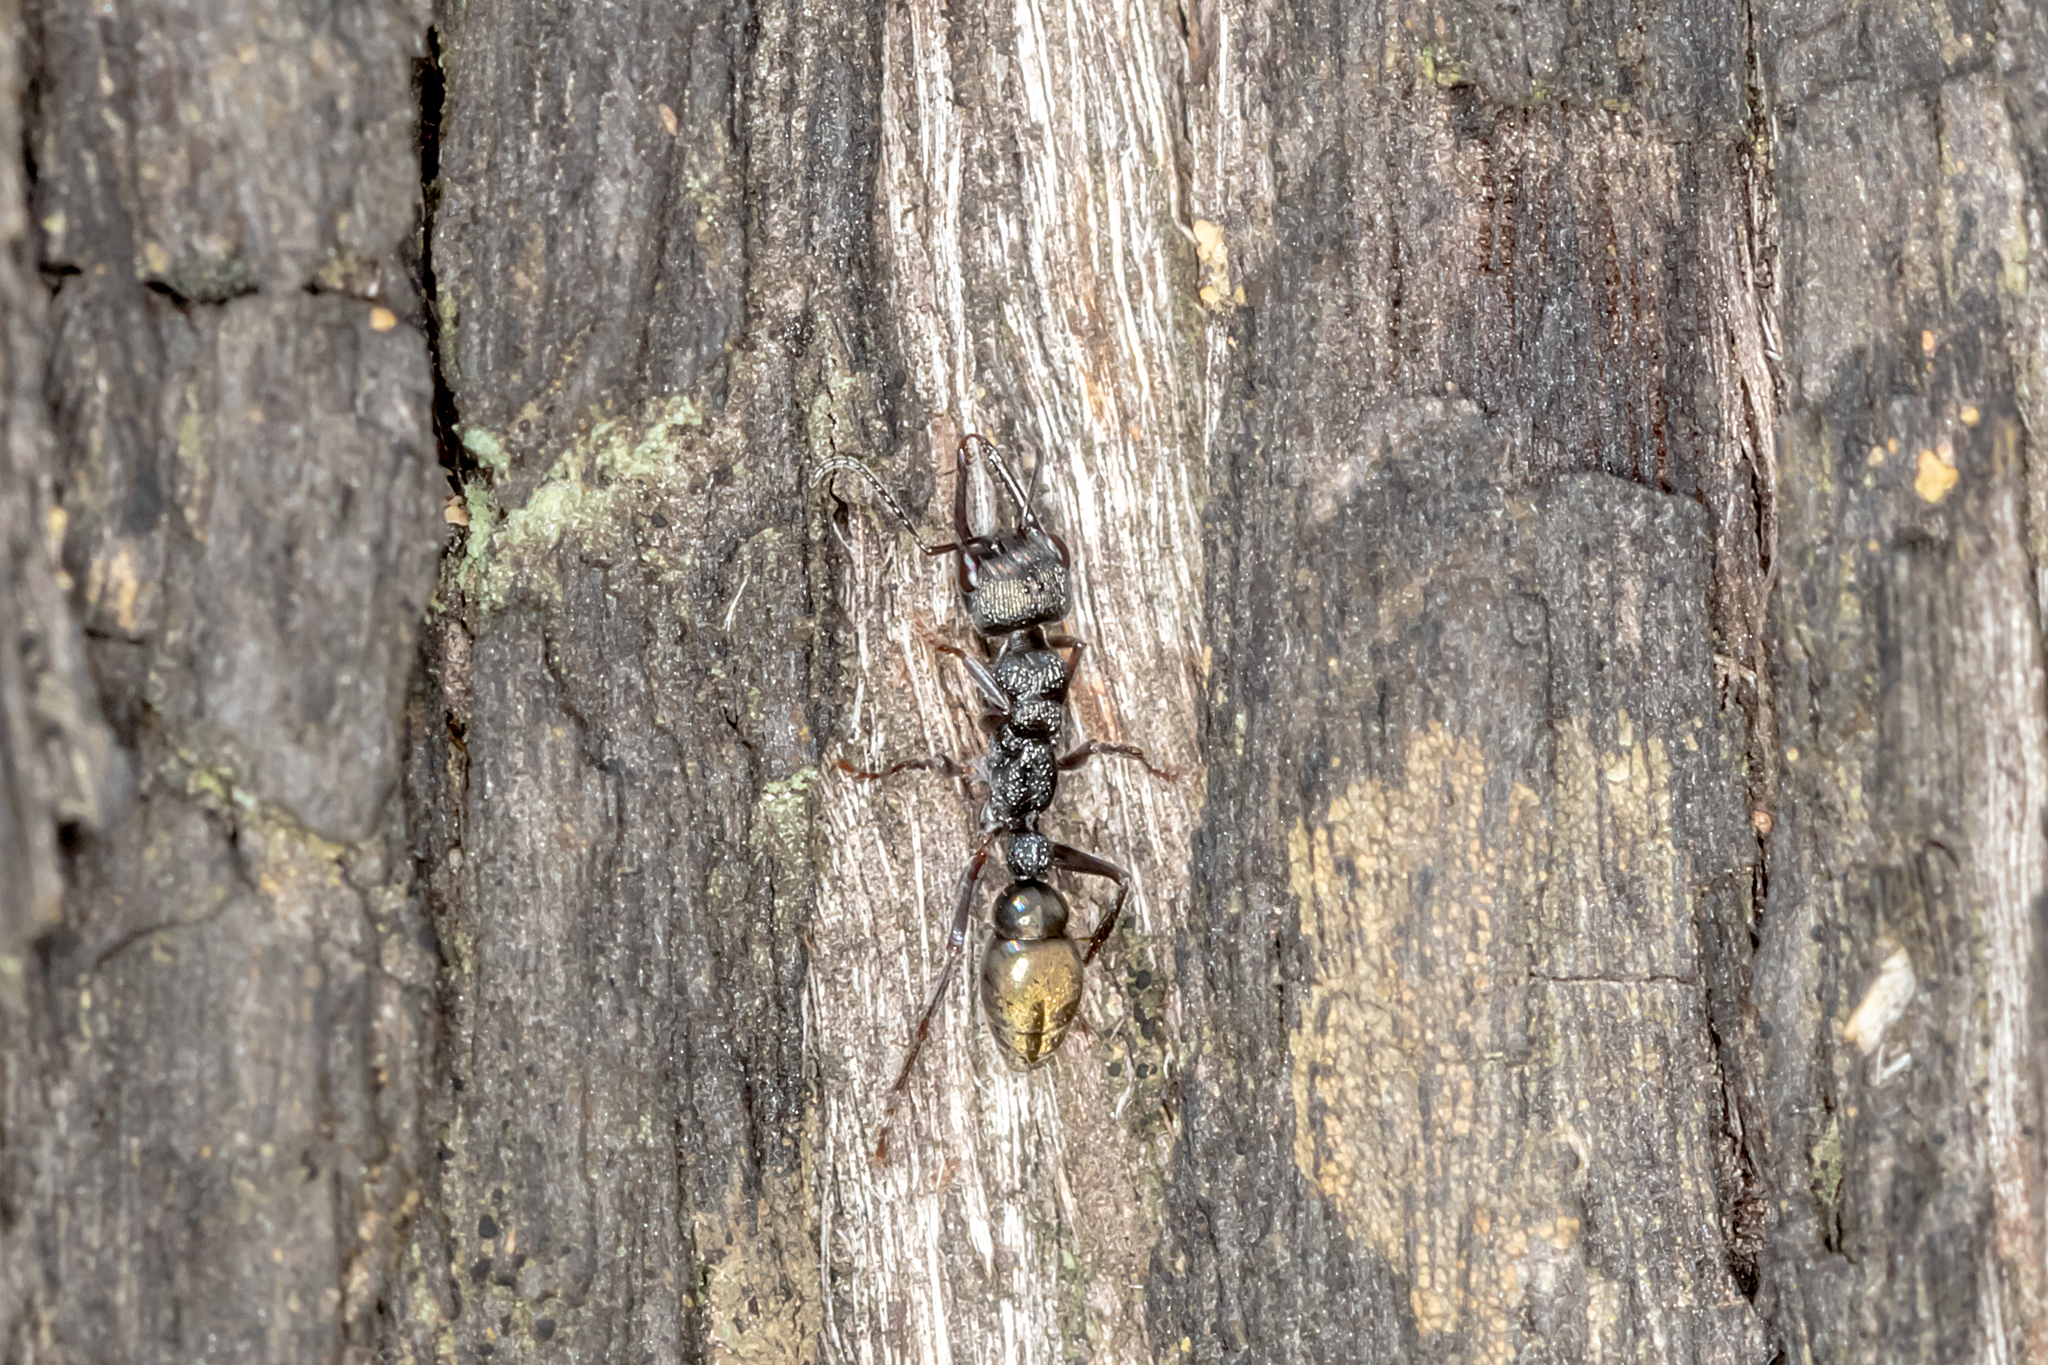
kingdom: Animalia
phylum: Arthropoda
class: Insecta
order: Hymenoptera
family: Formicidae
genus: Myrmecia
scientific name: Myrmecia piliventris
